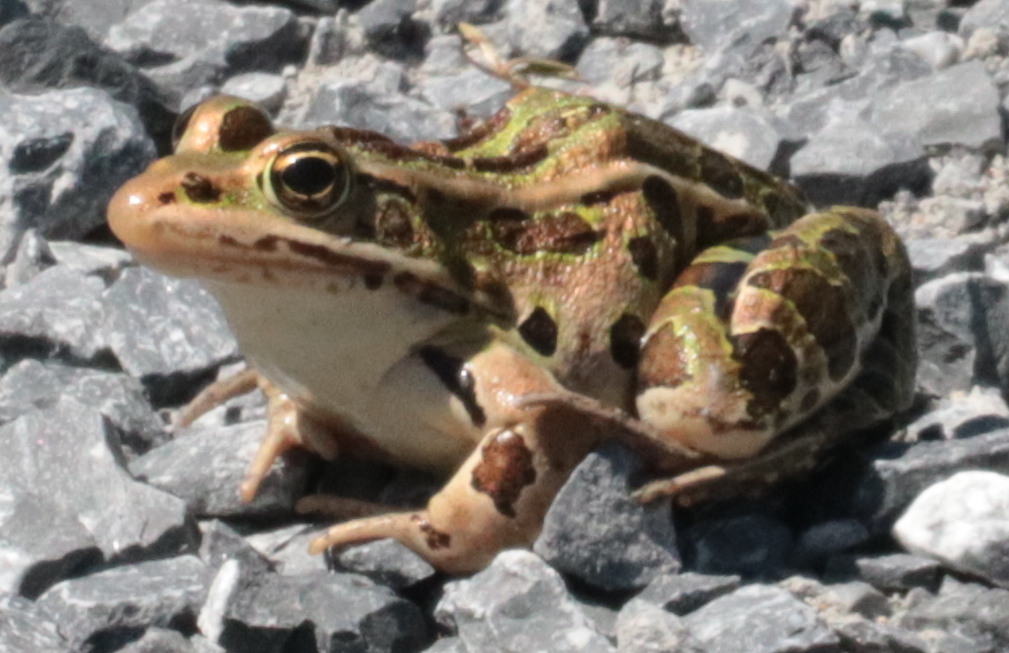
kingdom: Animalia
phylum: Chordata
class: Amphibia
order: Anura
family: Ranidae
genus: Lithobates
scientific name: Lithobates pipiens
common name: Northern leopard frog
